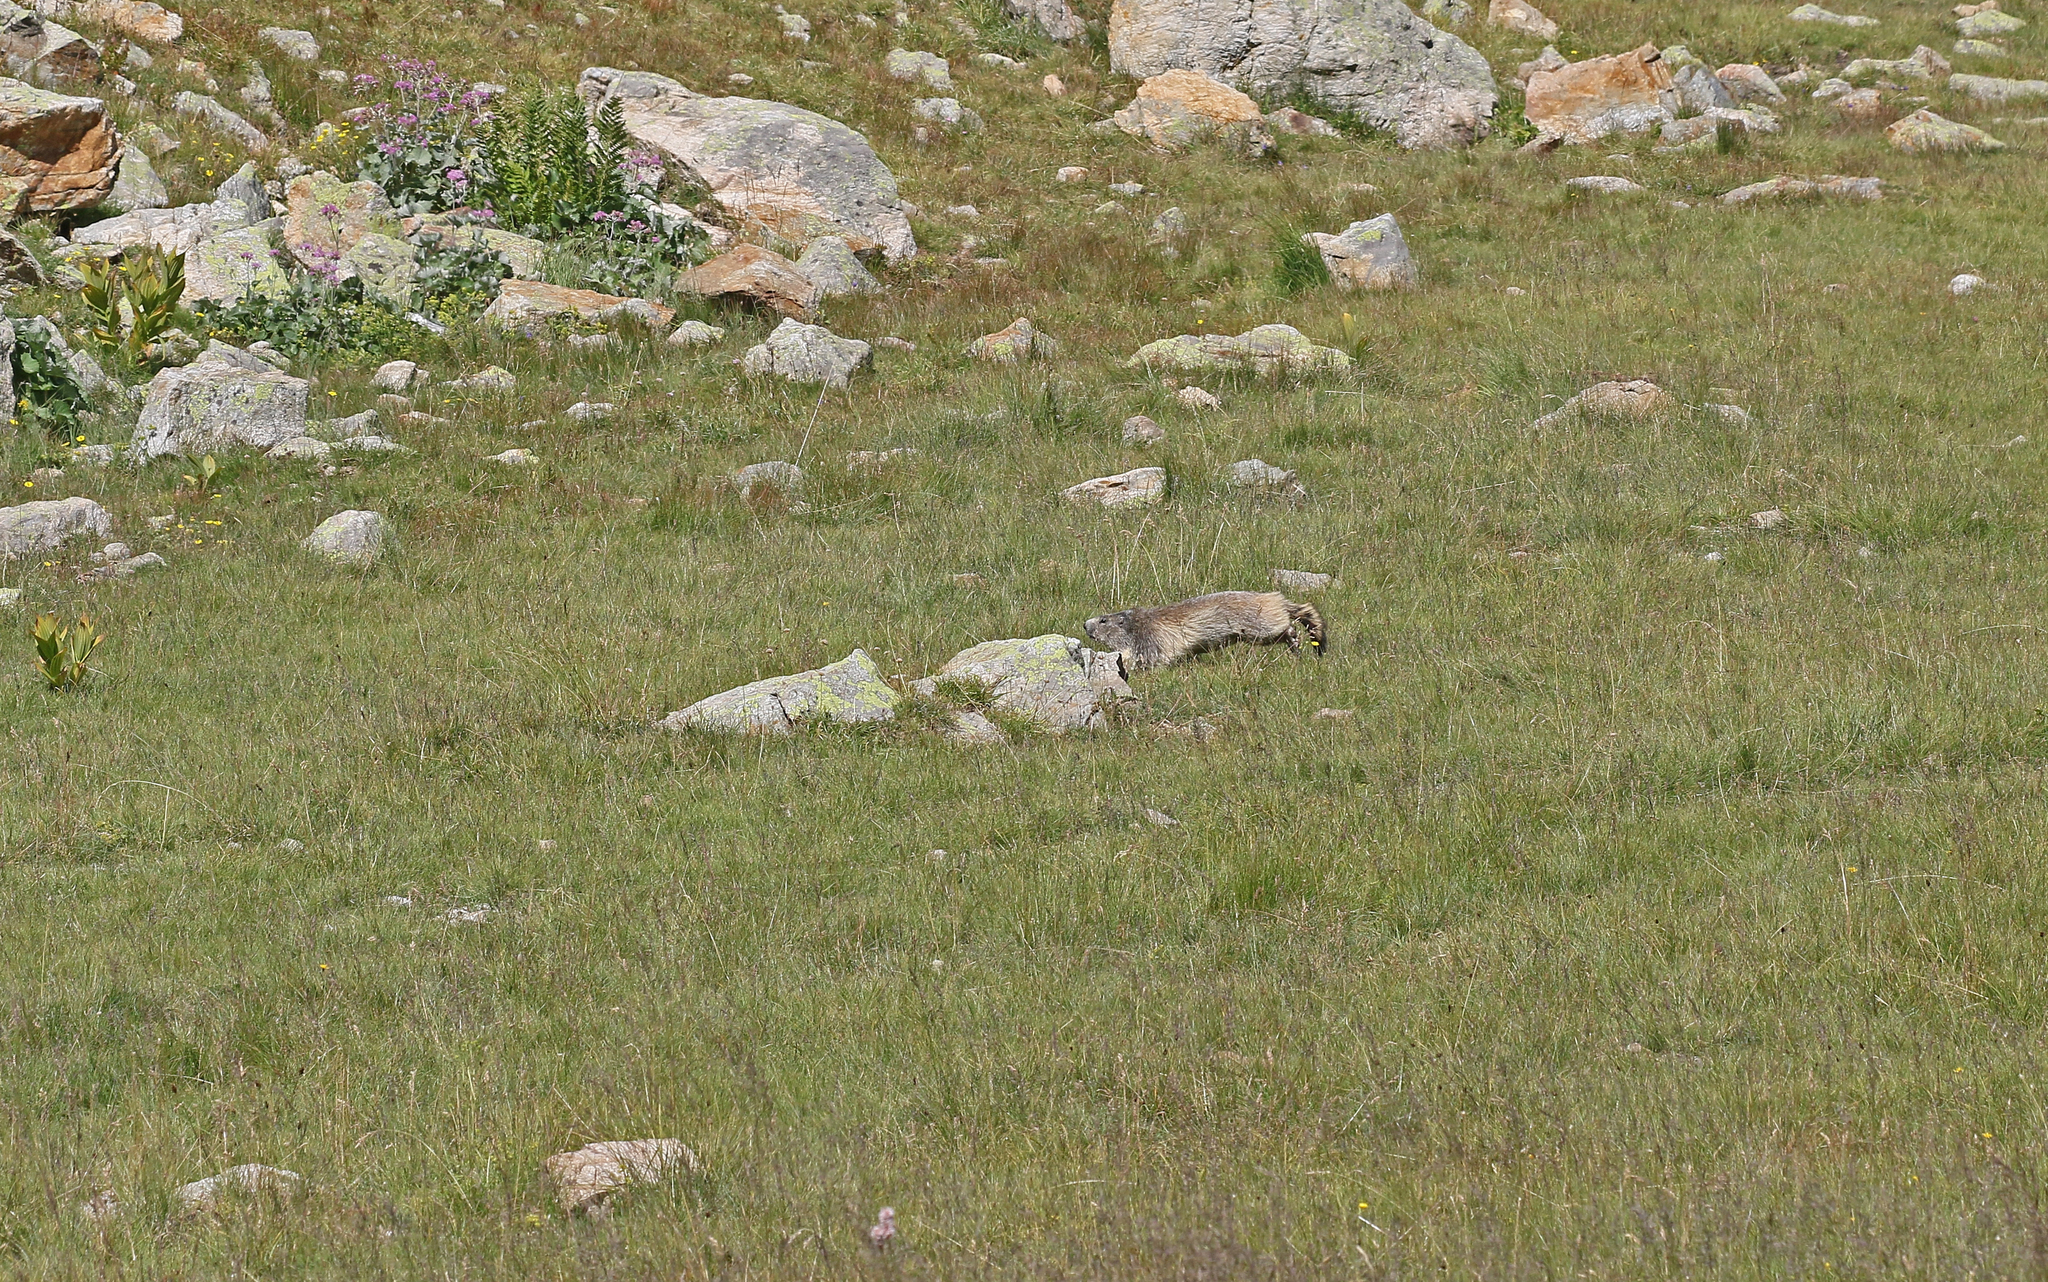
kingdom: Animalia
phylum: Chordata
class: Mammalia
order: Rodentia
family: Sciuridae
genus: Marmota
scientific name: Marmota marmota
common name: Alpine marmot
